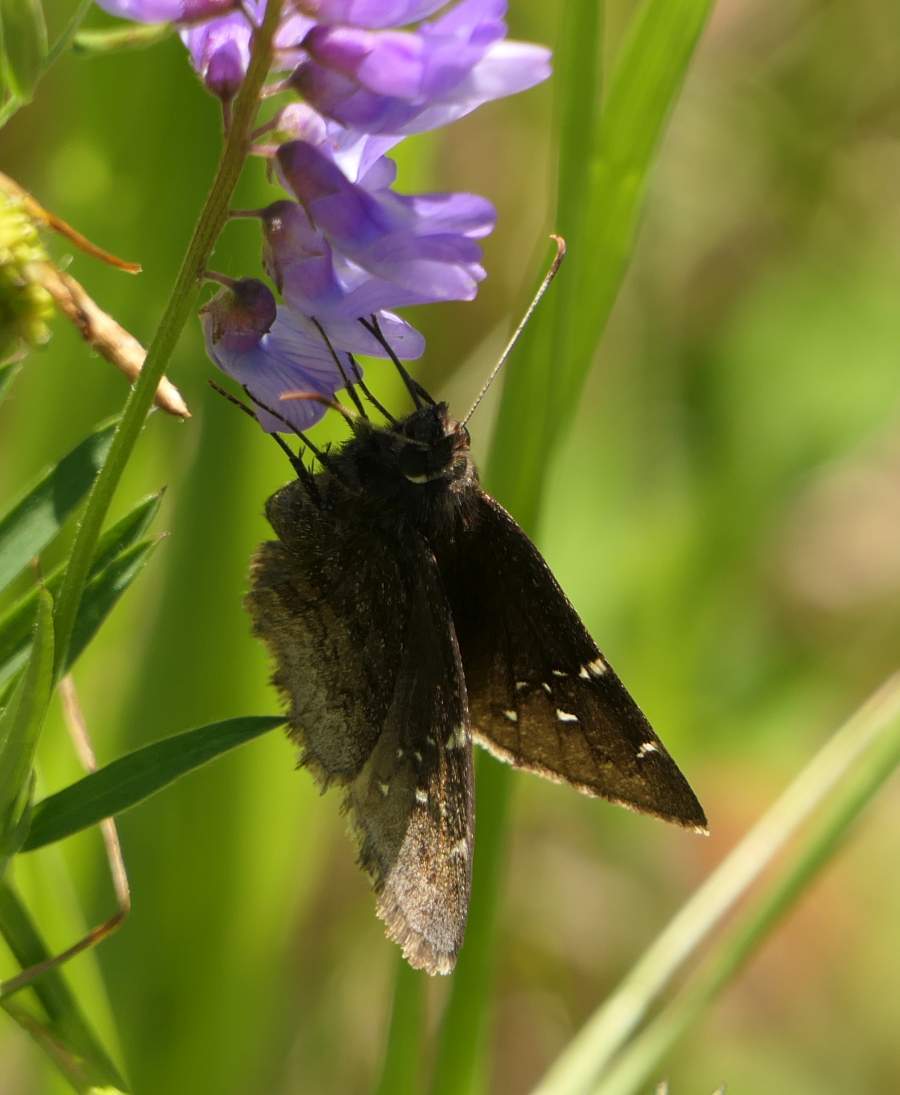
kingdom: Animalia
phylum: Arthropoda
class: Insecta
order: Lepidoptera
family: Hesperiidae
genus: Thorybes
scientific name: Thorybes pylades
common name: Northern cloudywing
